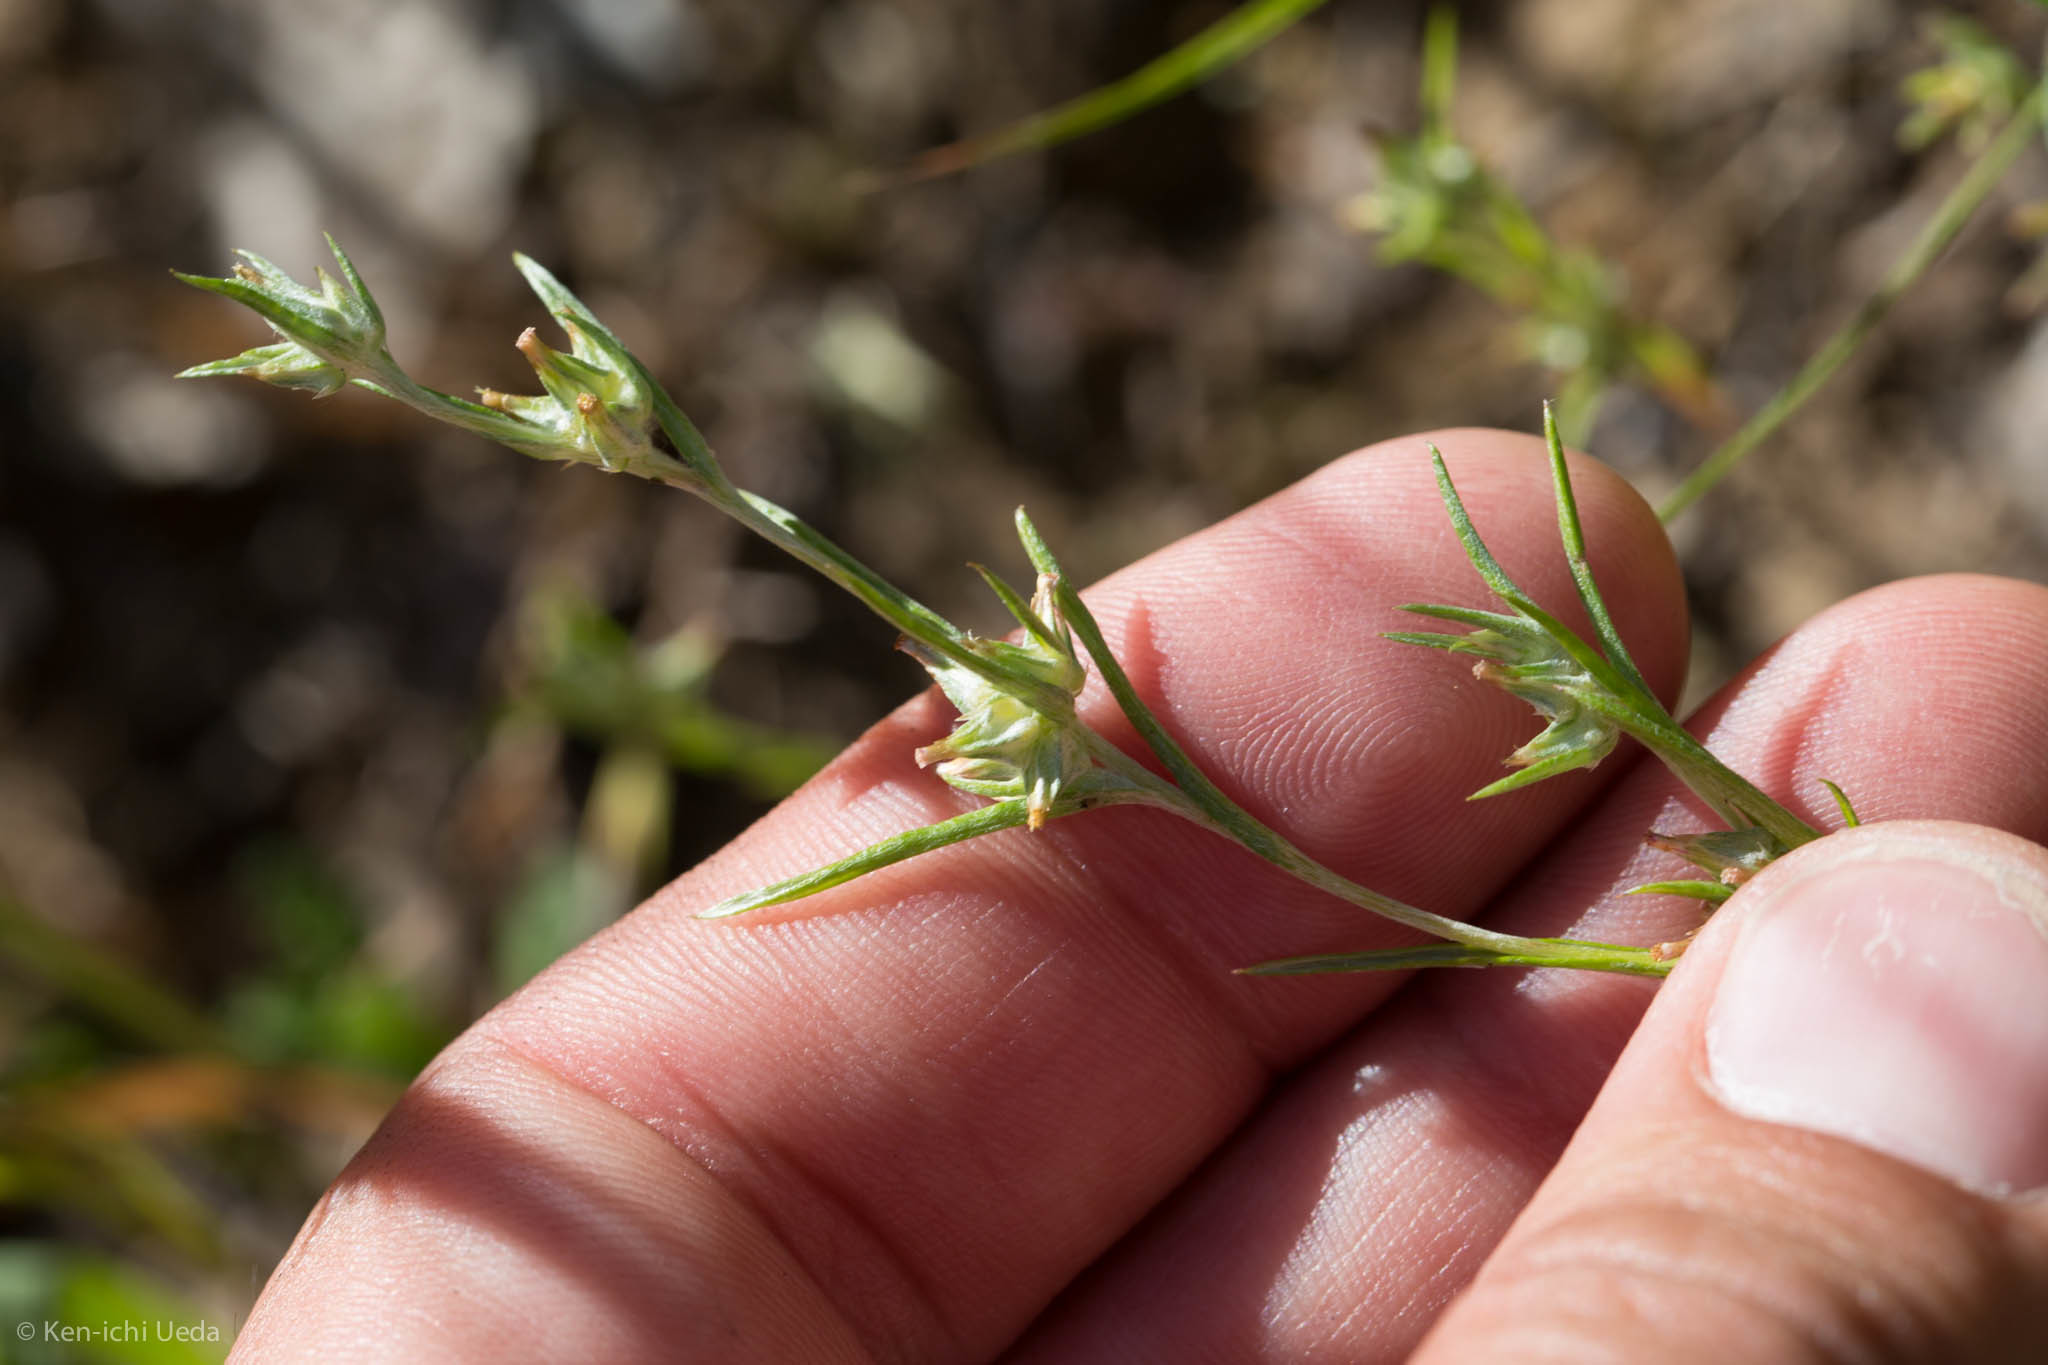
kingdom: Plantae
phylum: Tracheophyta
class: Magnoliopsida
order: Asterales
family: Asteraceae
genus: Logfia
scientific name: Logfia gallica
